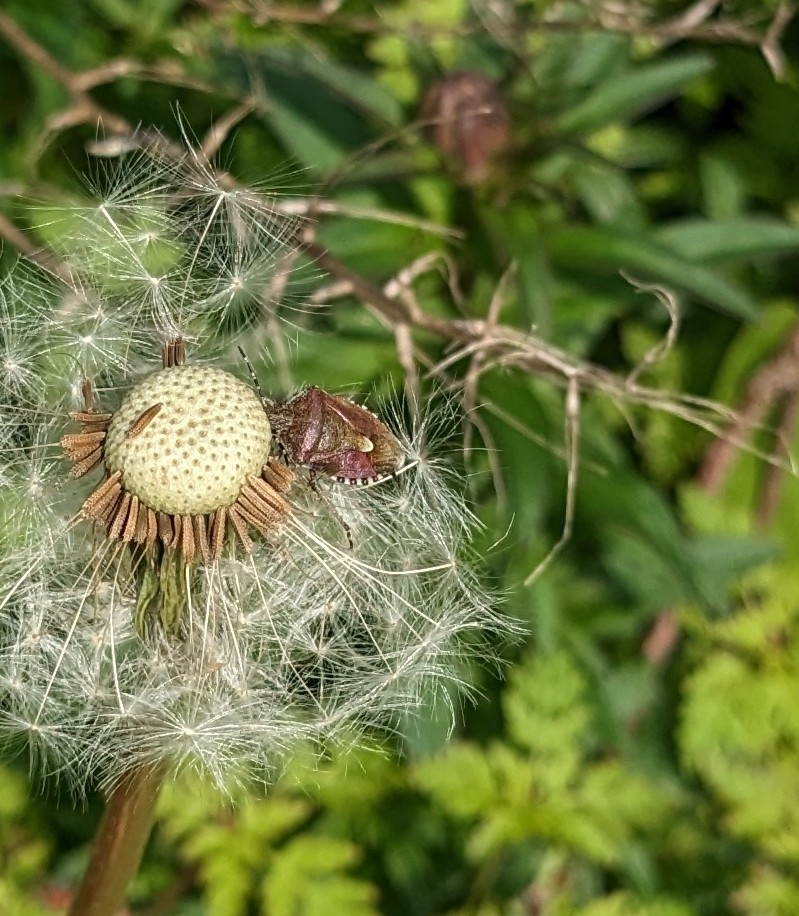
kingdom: Animalia
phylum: Arthropoda
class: Insecta
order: Hemiptera
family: Pentatomidae
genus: Dolycoris
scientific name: Dolycoris baccarum
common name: Sloe bug
